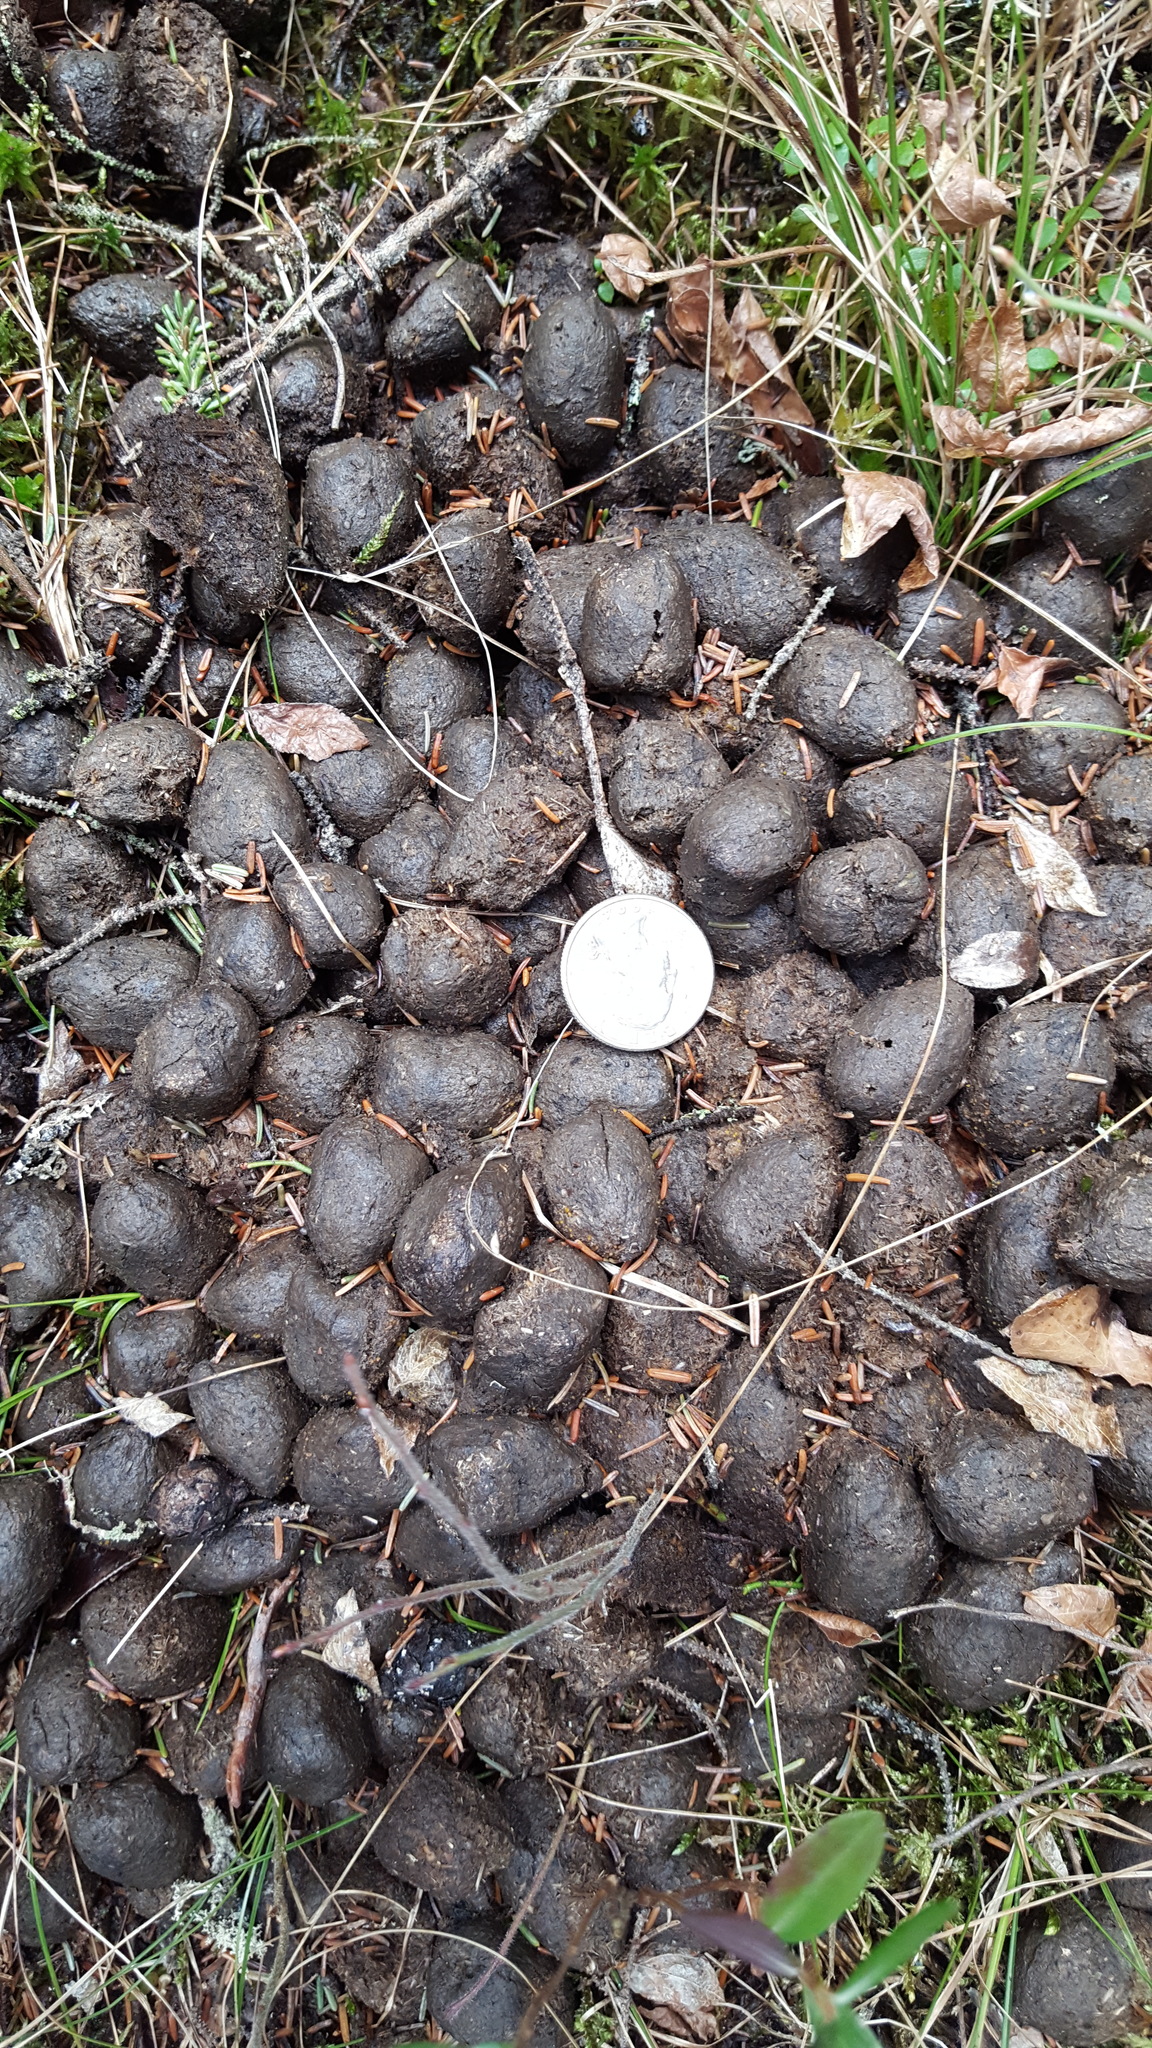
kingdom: Animalia
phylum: Chordata
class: Mammalia
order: Artiodactyla
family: Cervidae
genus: Alces
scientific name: Alces alces
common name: Moose
